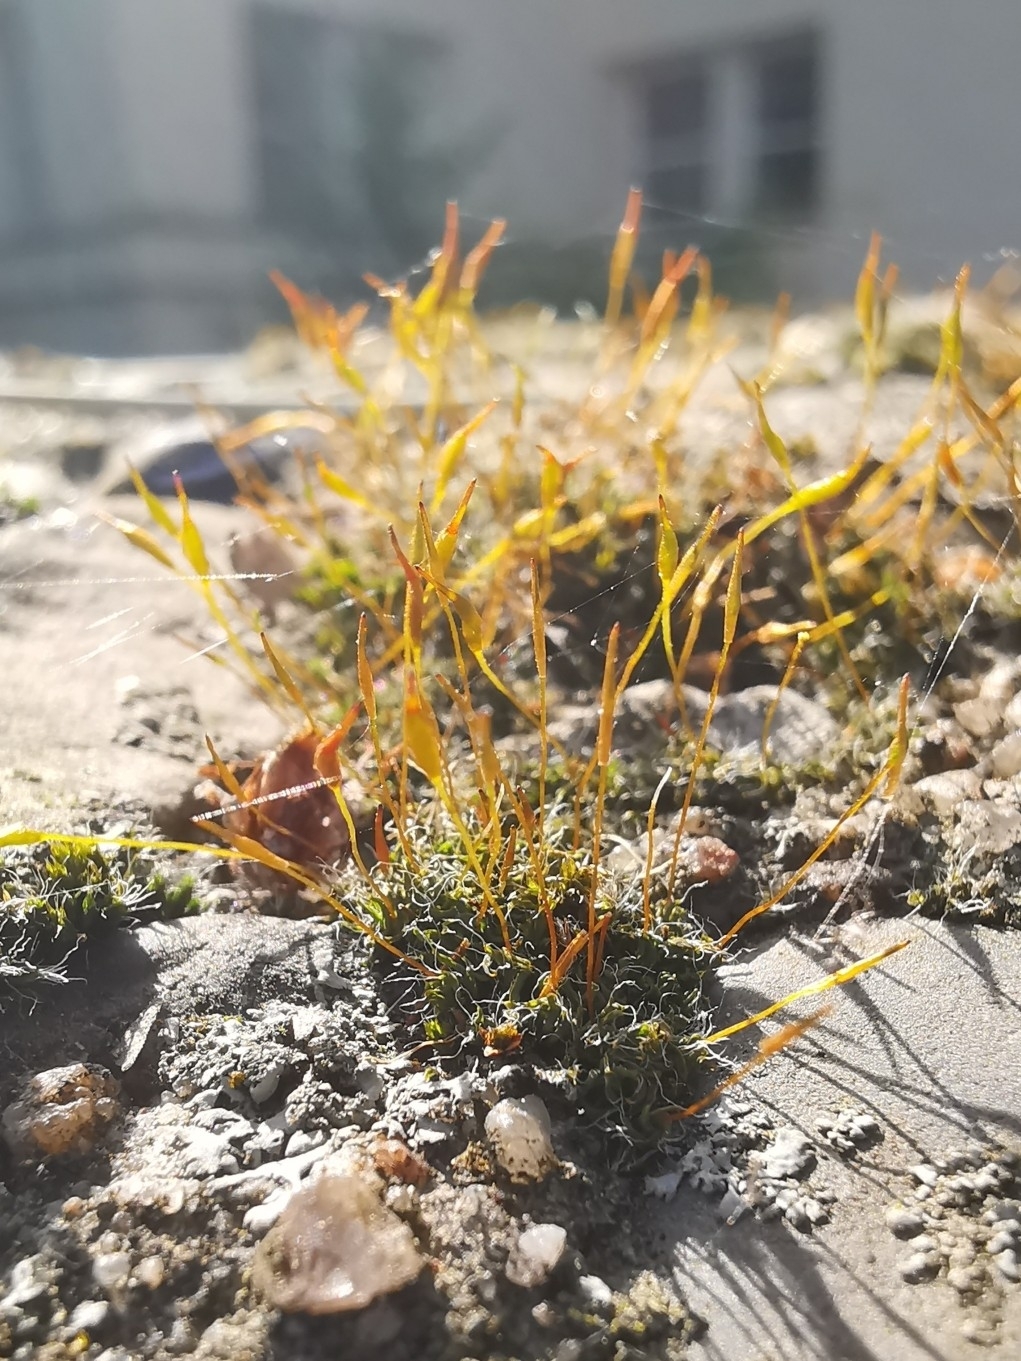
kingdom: Plantae
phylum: Bryophyta
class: Bryopsida
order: Pottiales
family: Pottiaceae
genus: Tortula
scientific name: Tortula muralis
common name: Wall screw-moss
